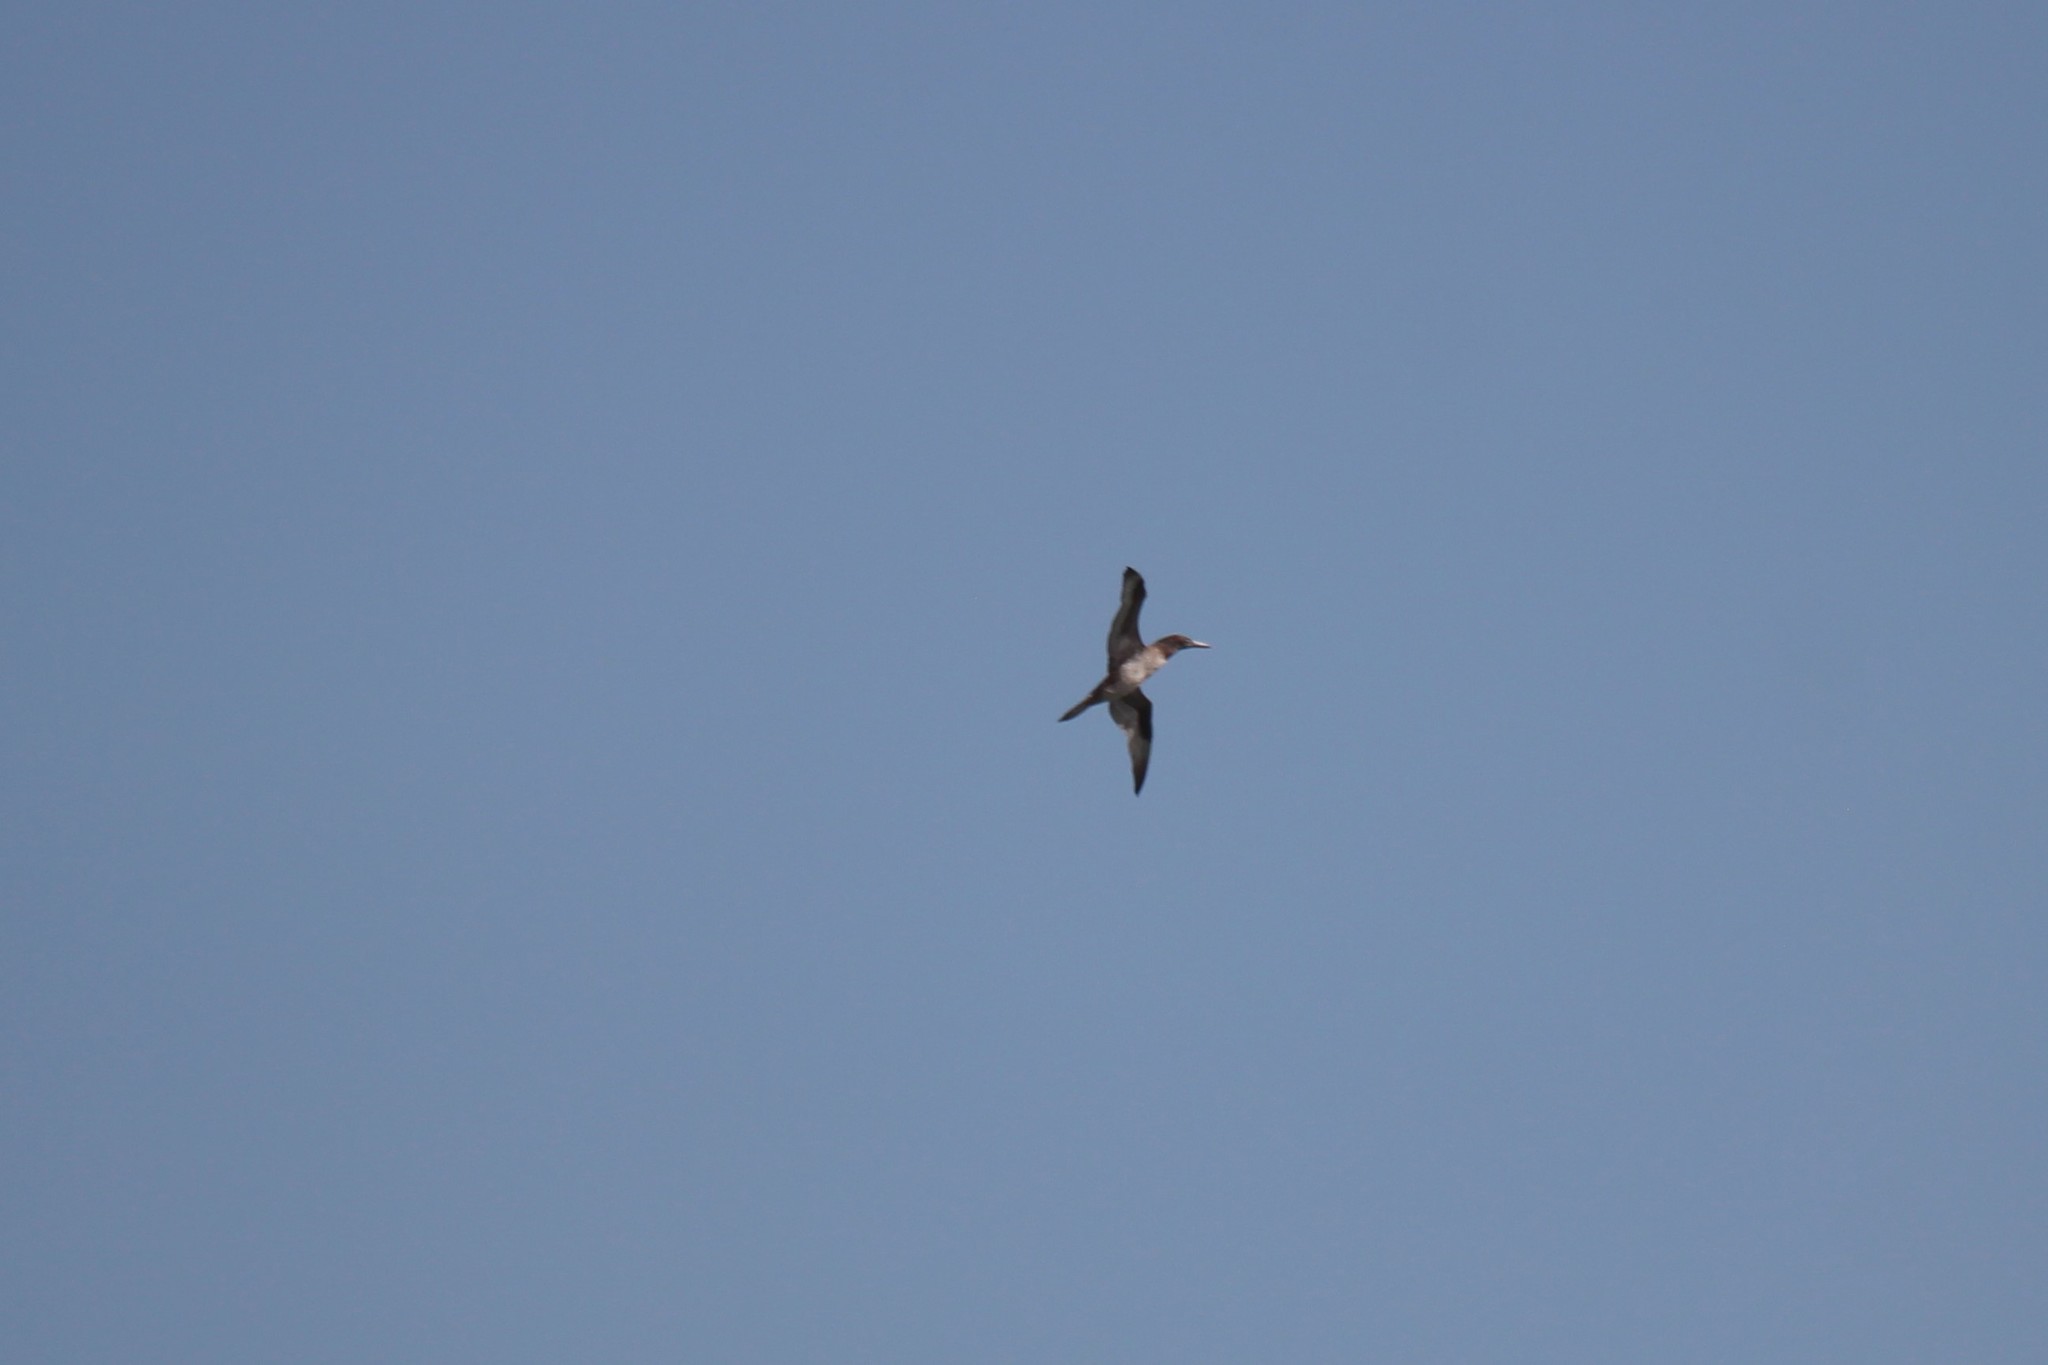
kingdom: Animalia
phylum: Chordata
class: Aves
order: Suliformes
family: Sulidae
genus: Morus
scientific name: Morus bassanus
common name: Northern gannet
